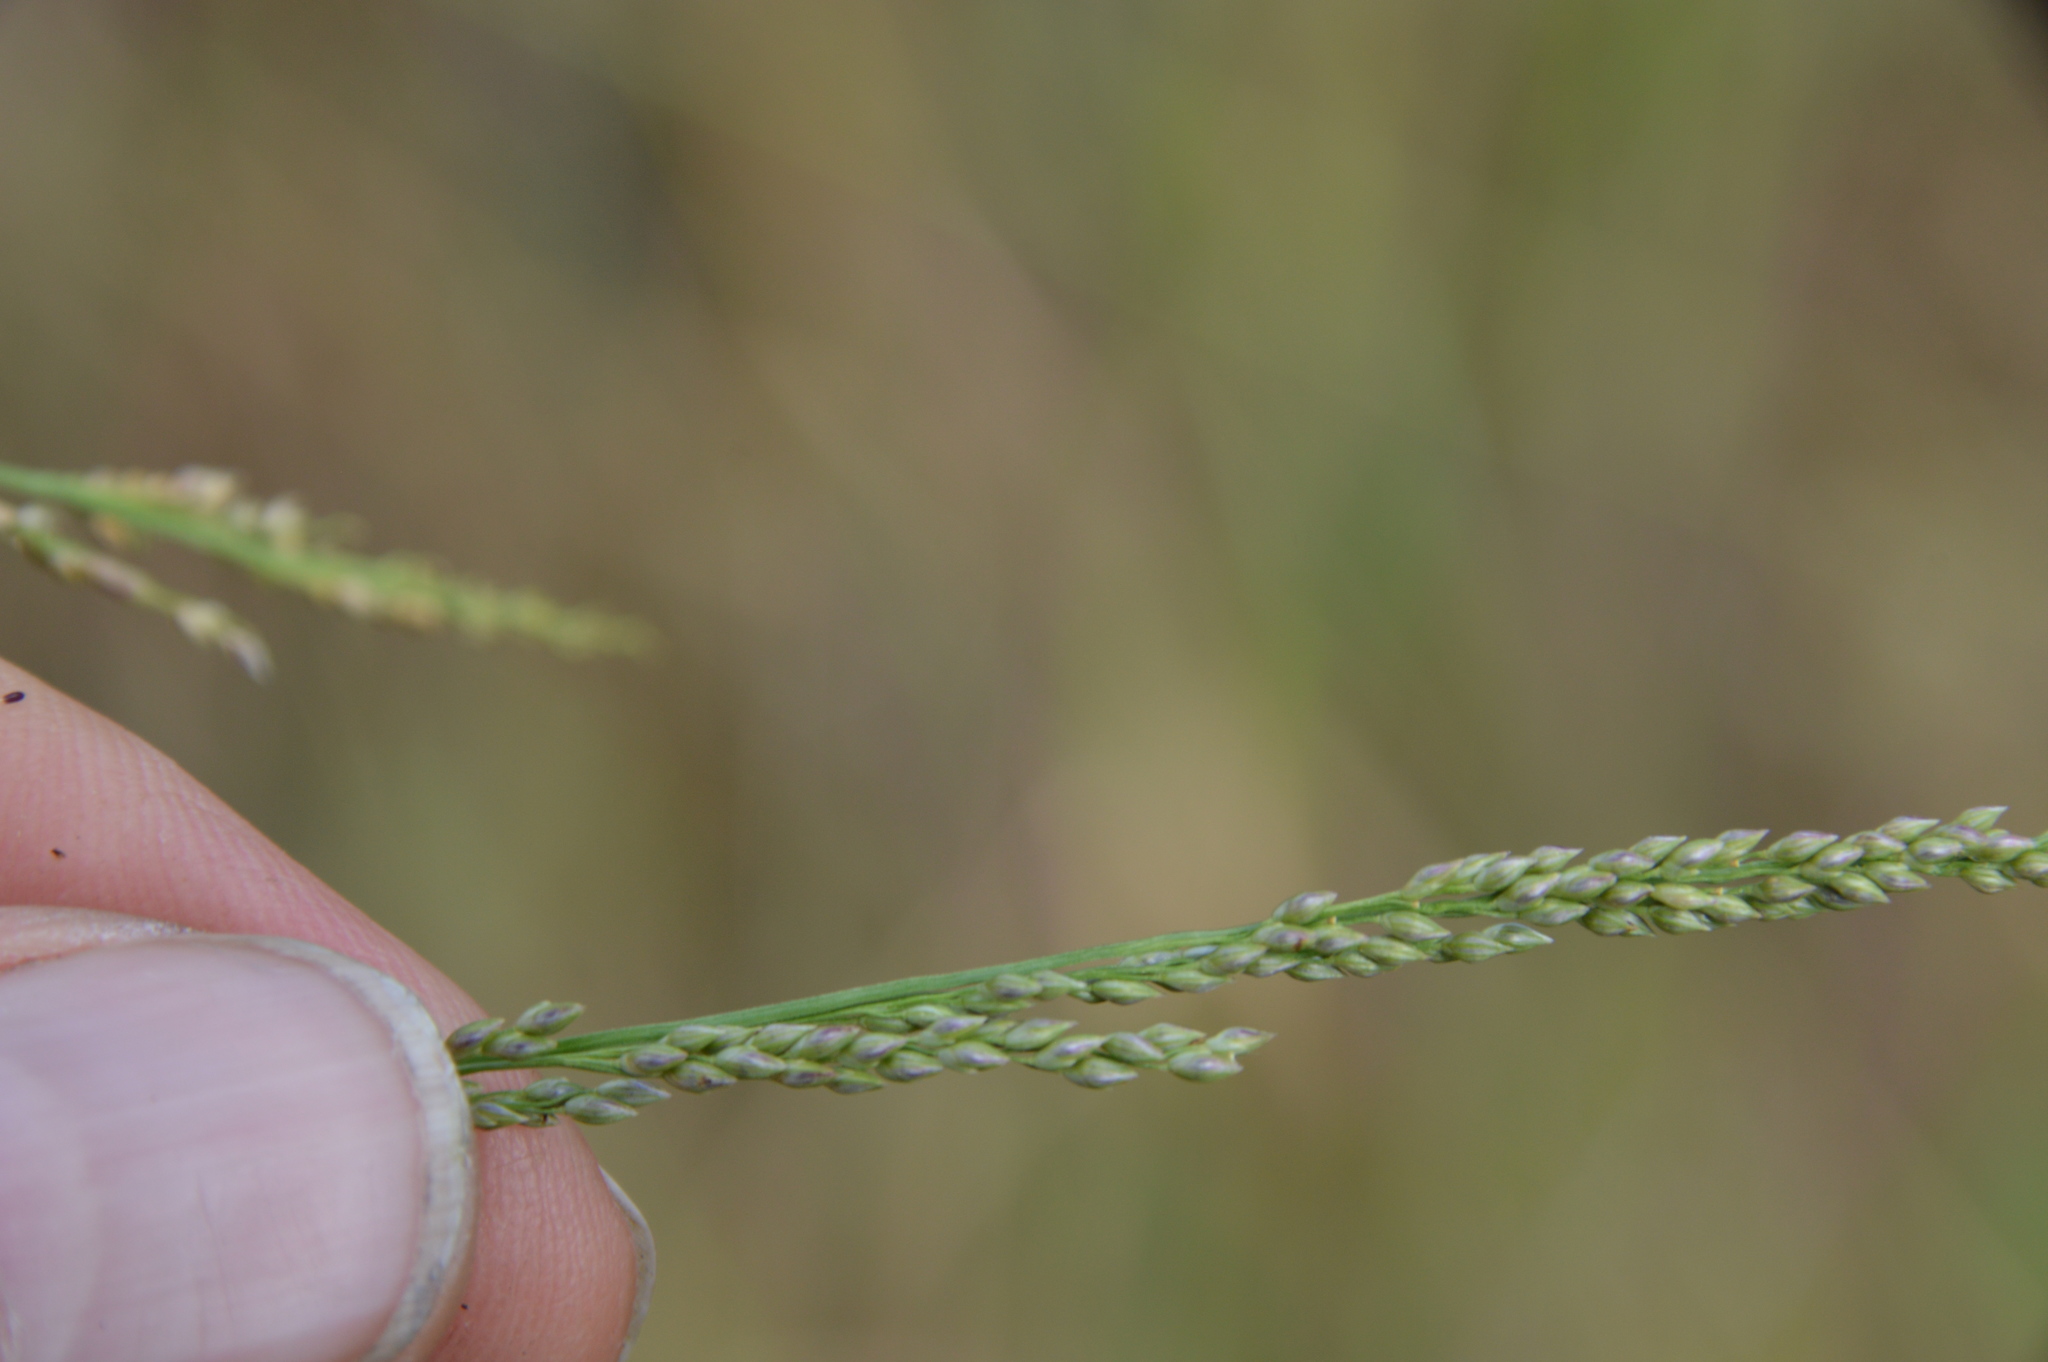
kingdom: Plantae
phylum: Tracheophyta
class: Liliopsida
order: Poales
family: Poaceae
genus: Panicum
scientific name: Panicum dichotomiflorum
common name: Autumn millet
